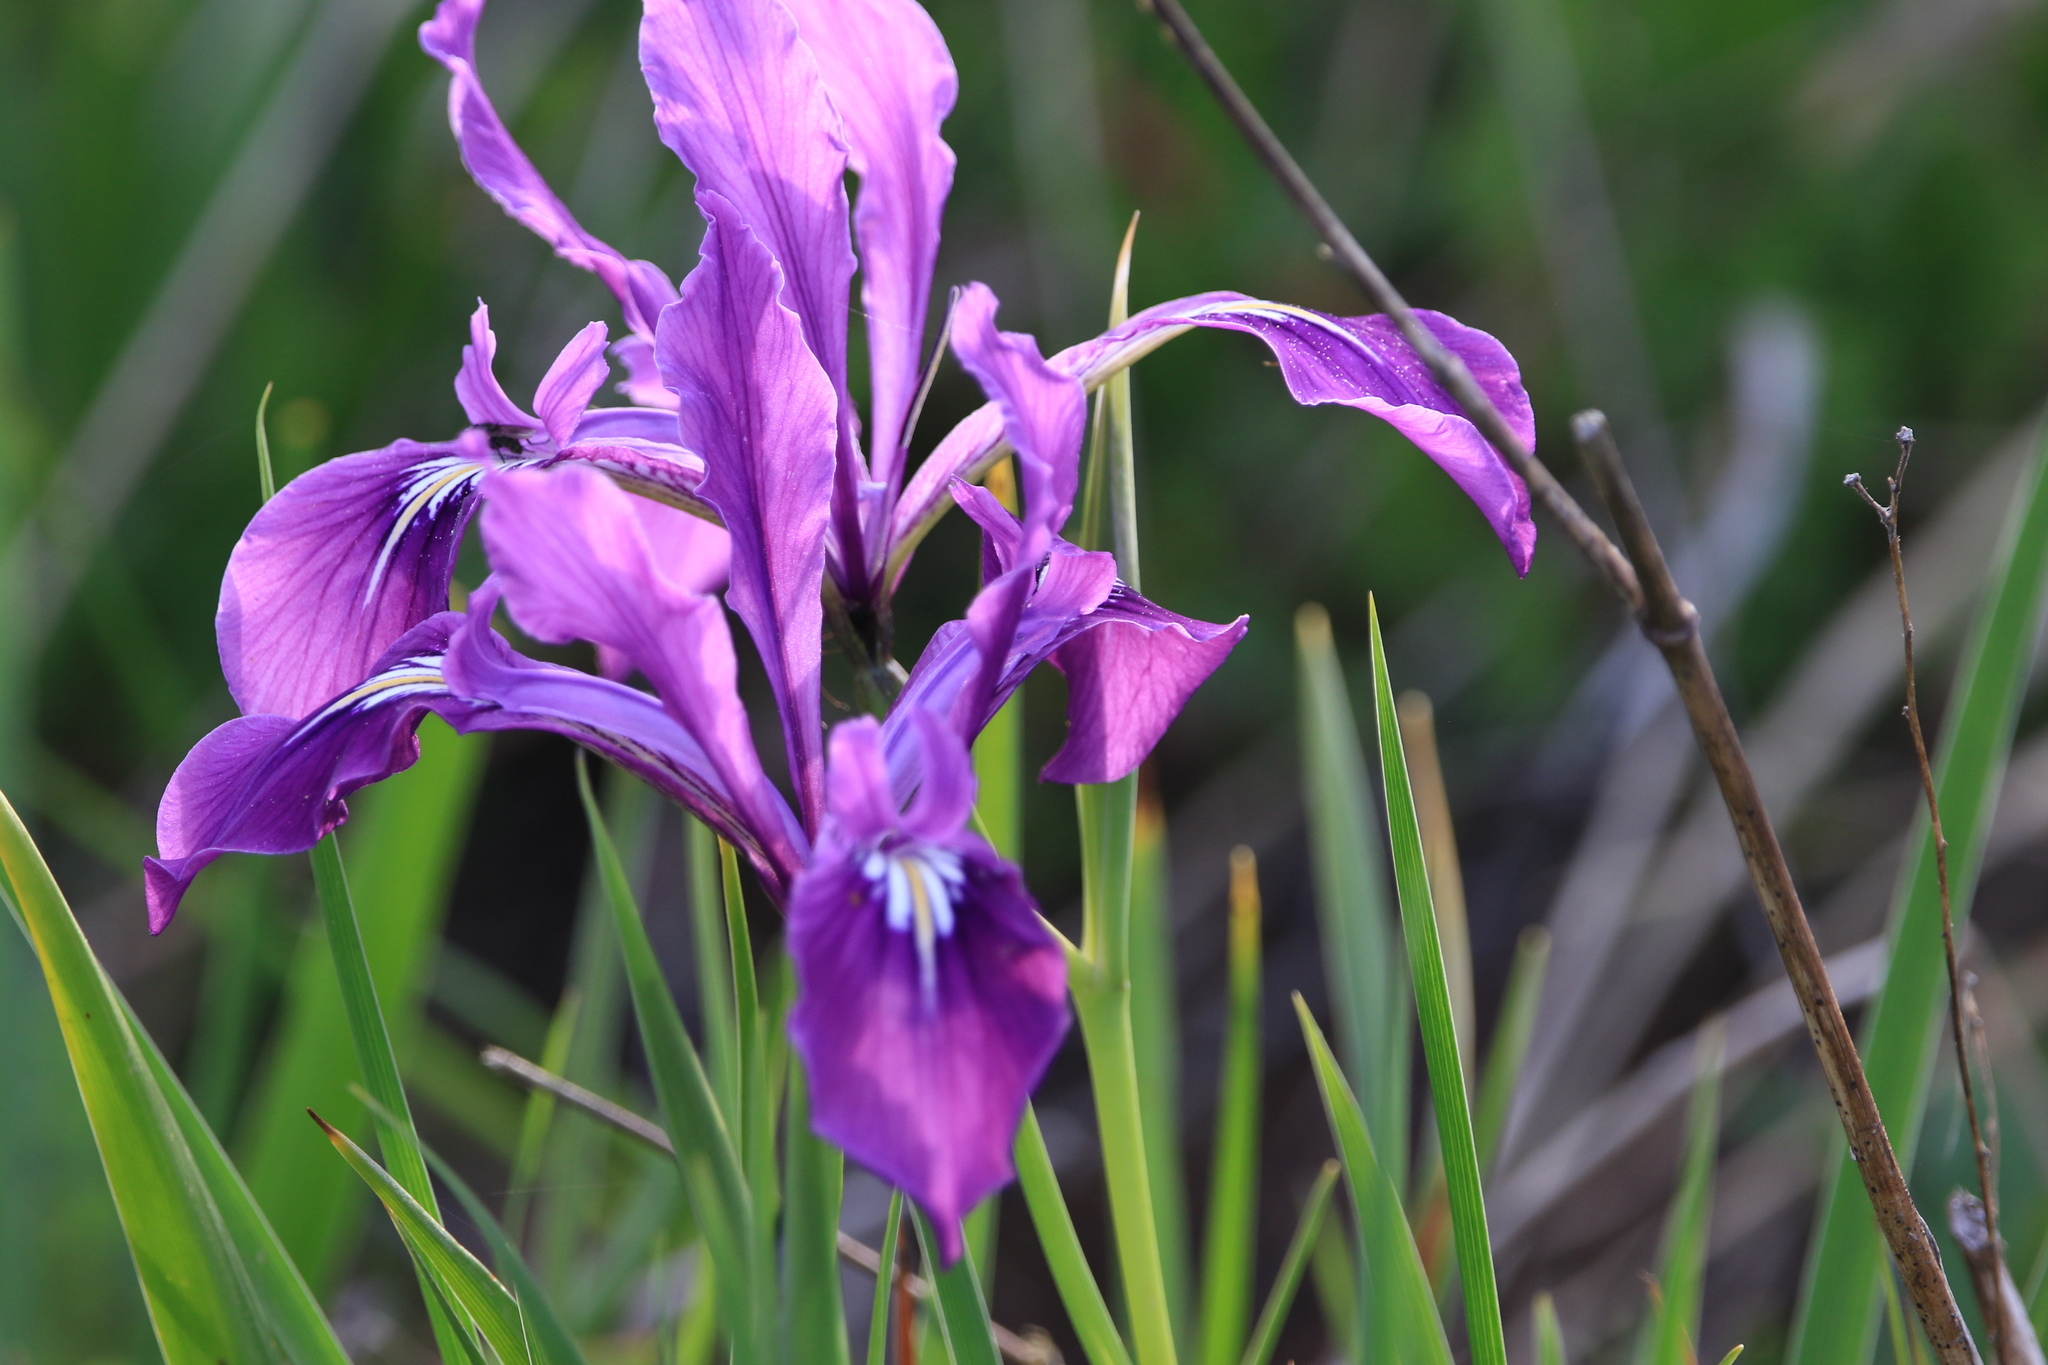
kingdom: Plantae
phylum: Tracheophyta
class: Liliopsida
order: Asparagales
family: Iridaceae
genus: Iris
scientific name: Iris tenax
